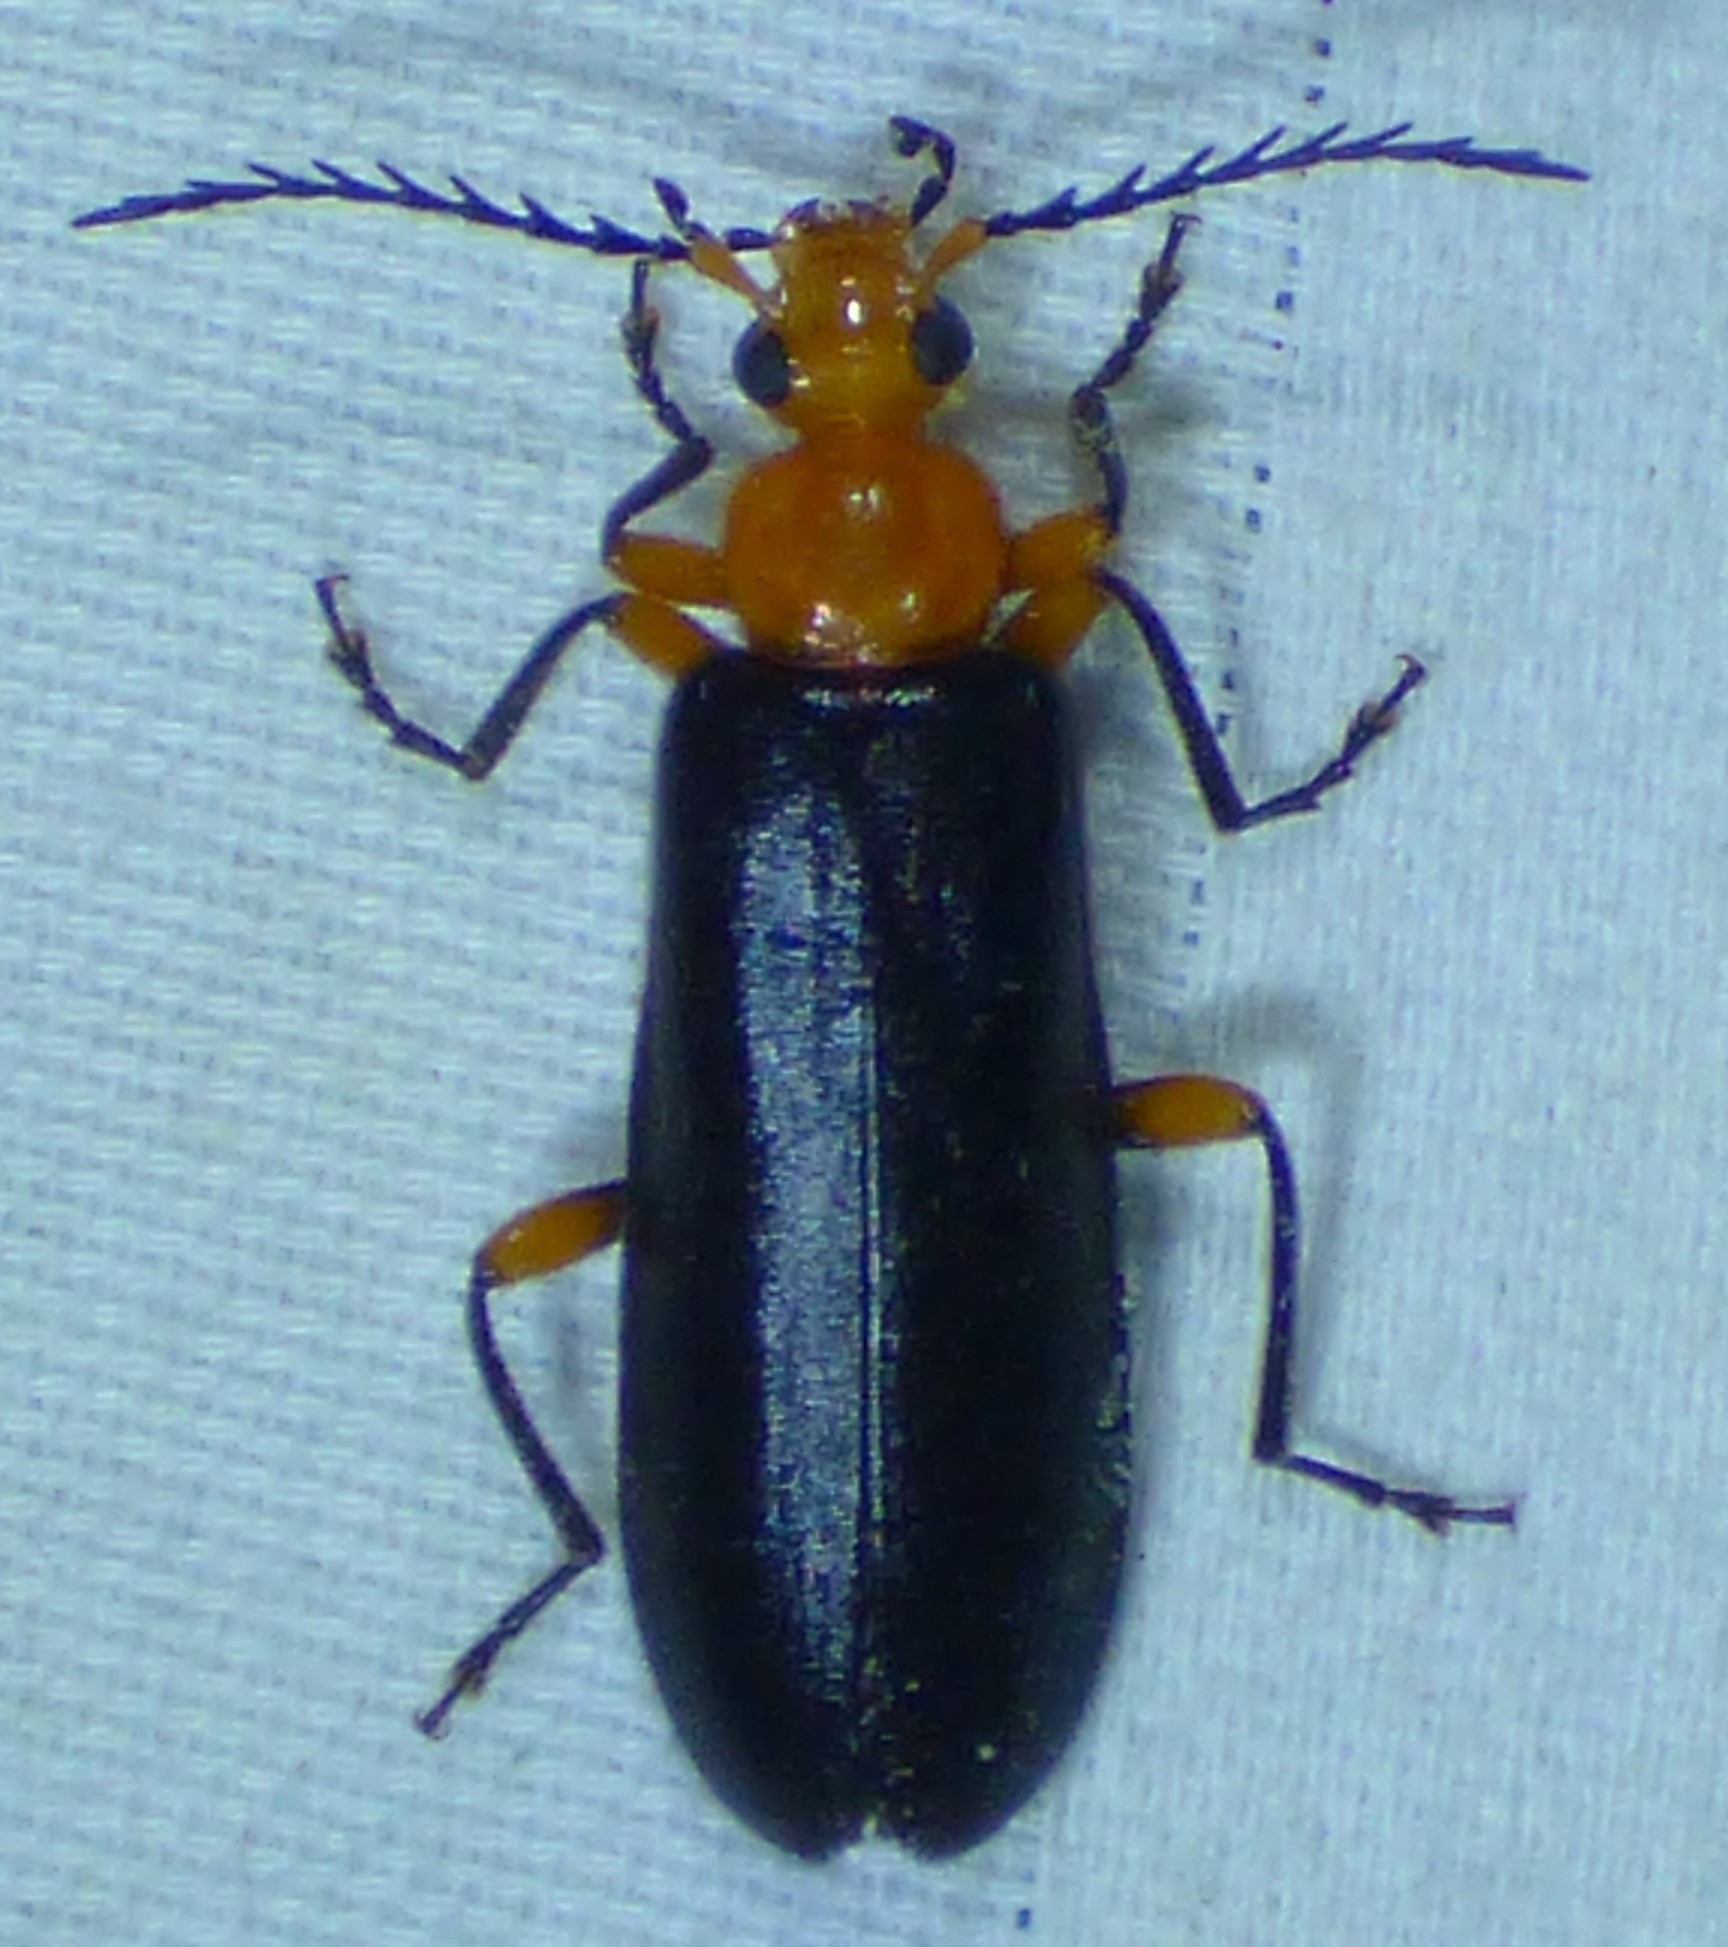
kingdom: Animalia
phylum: Arthropoda
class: Insecta
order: Coleoptera
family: Pyrochroidae
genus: Neopyrochroa
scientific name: Neopyrochroa femoralis
